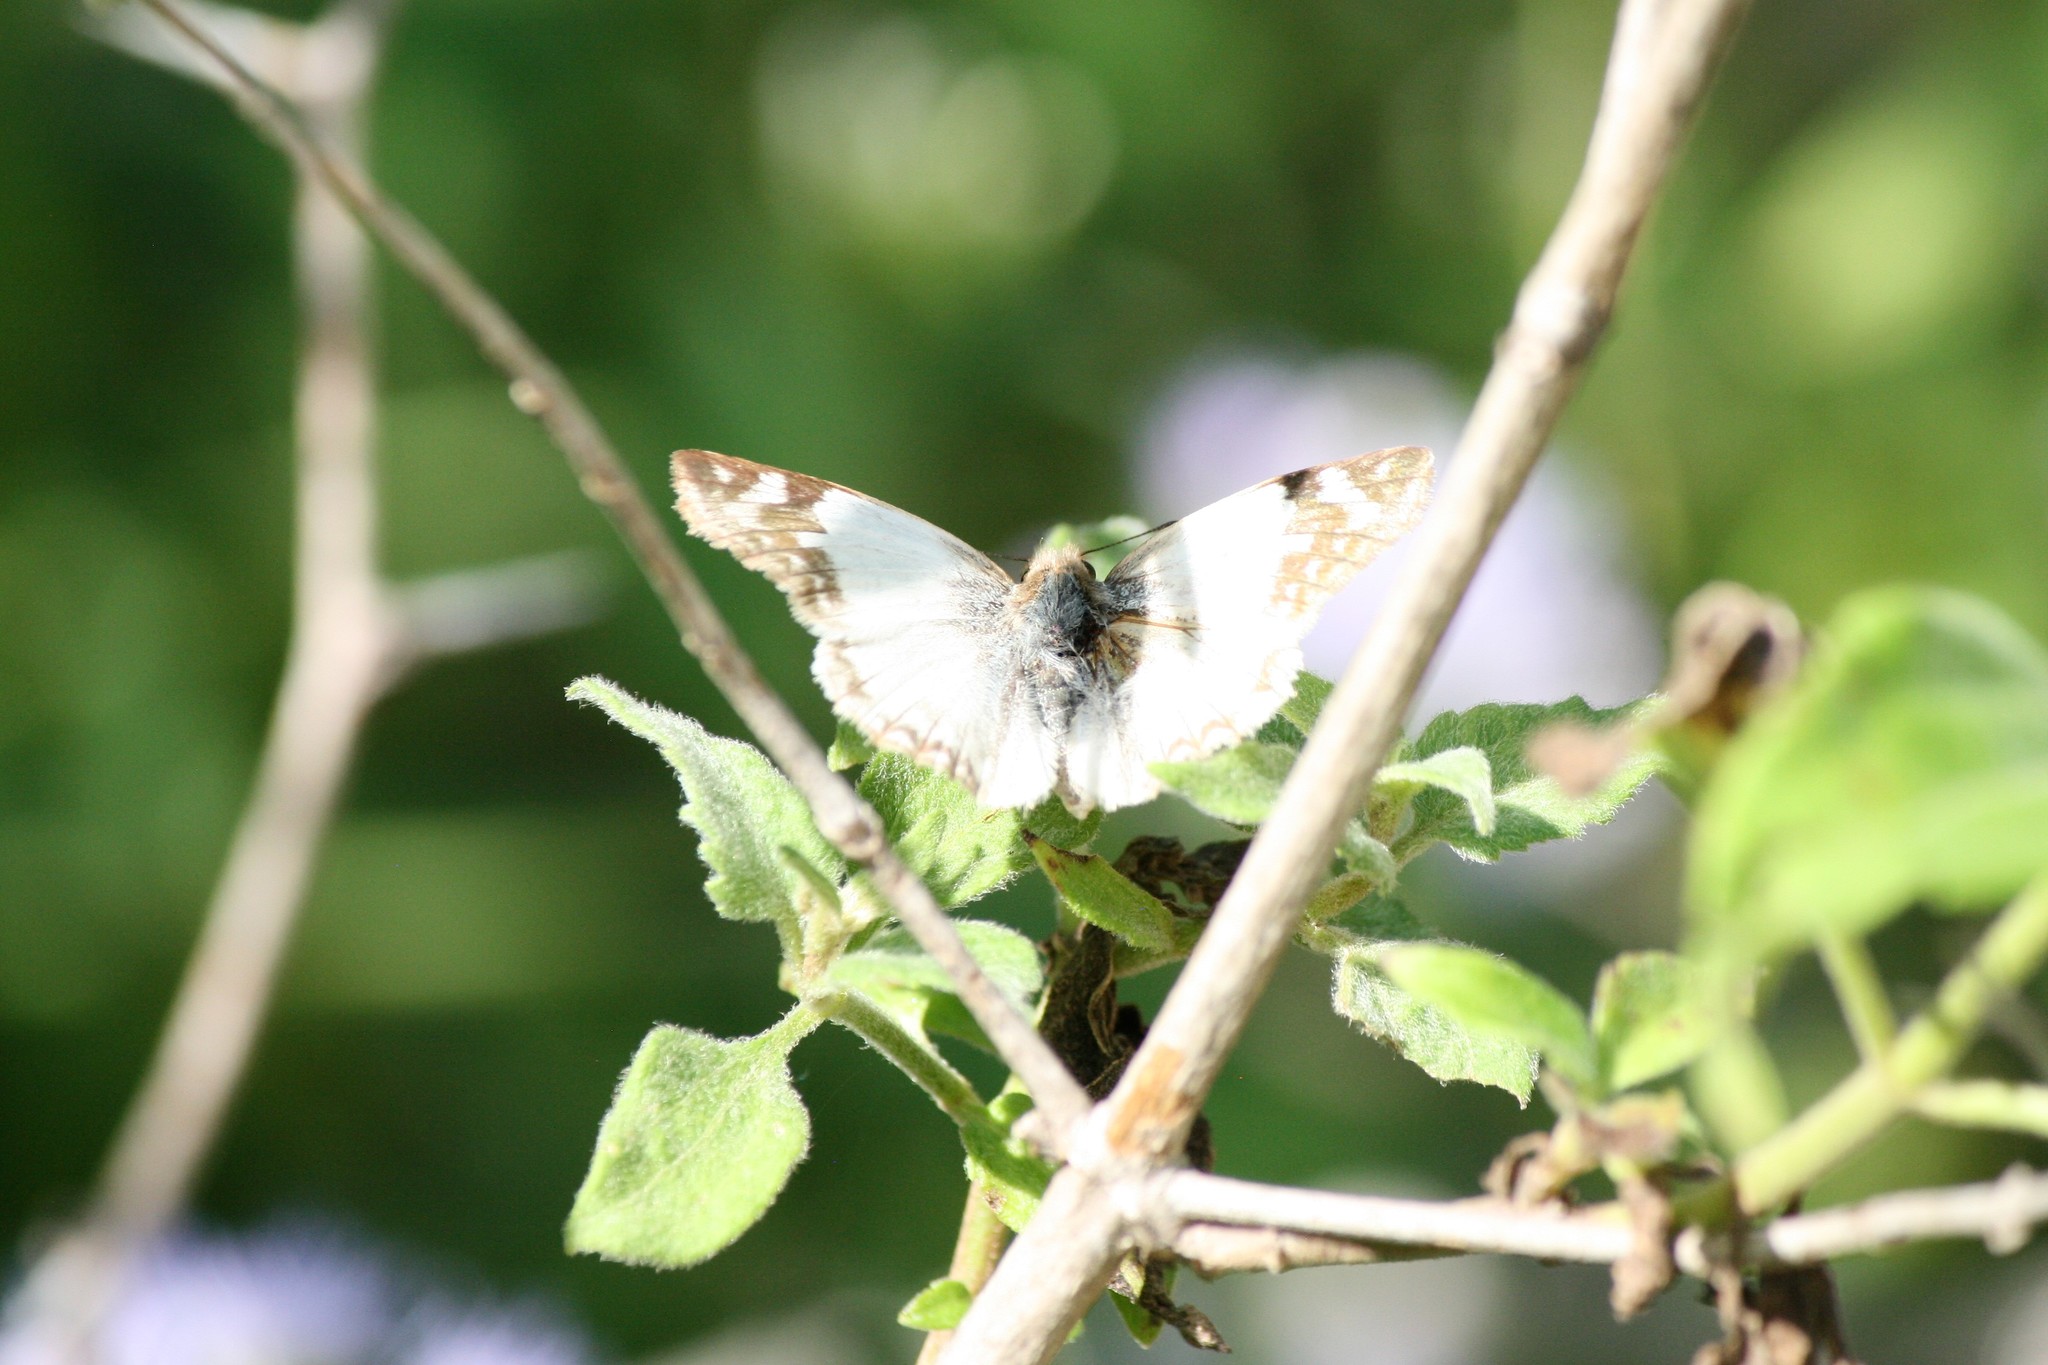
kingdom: Animalia
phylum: Arthropoda
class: Insecta
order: Lepidoptera
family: Hesperiidae
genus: Heliopetes
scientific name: Heliopetes laviana
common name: Laviana white-skipper
